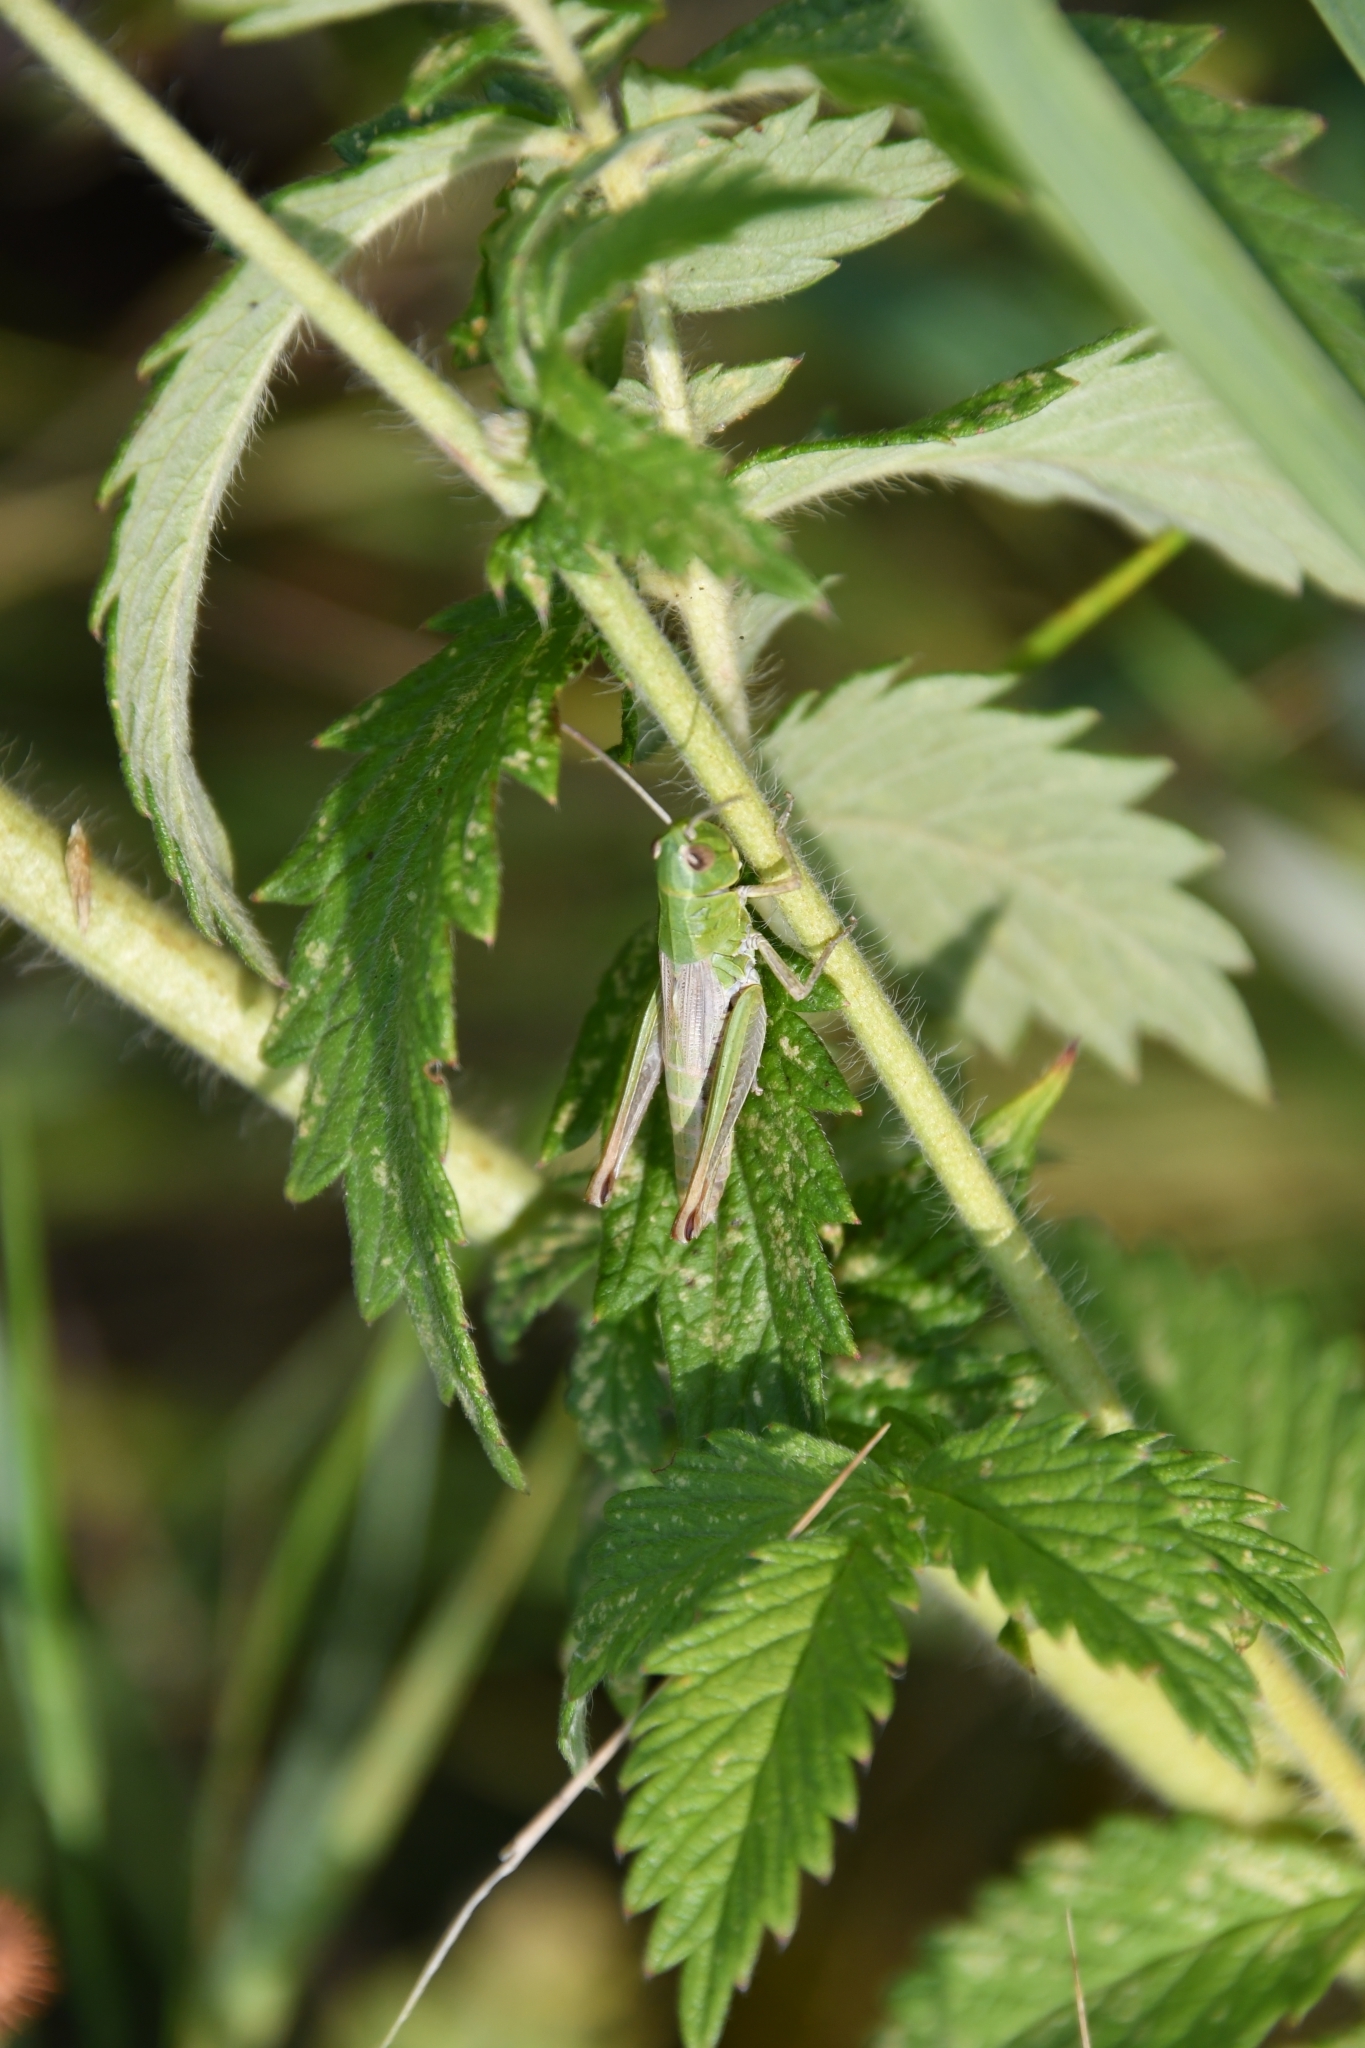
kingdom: Animalia
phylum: Arthropoda
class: Insecta
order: Orthoptera
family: Acrididae
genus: Pseudochorthippus
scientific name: Pseudochorthippus parallelus
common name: Meadow grasshopper
